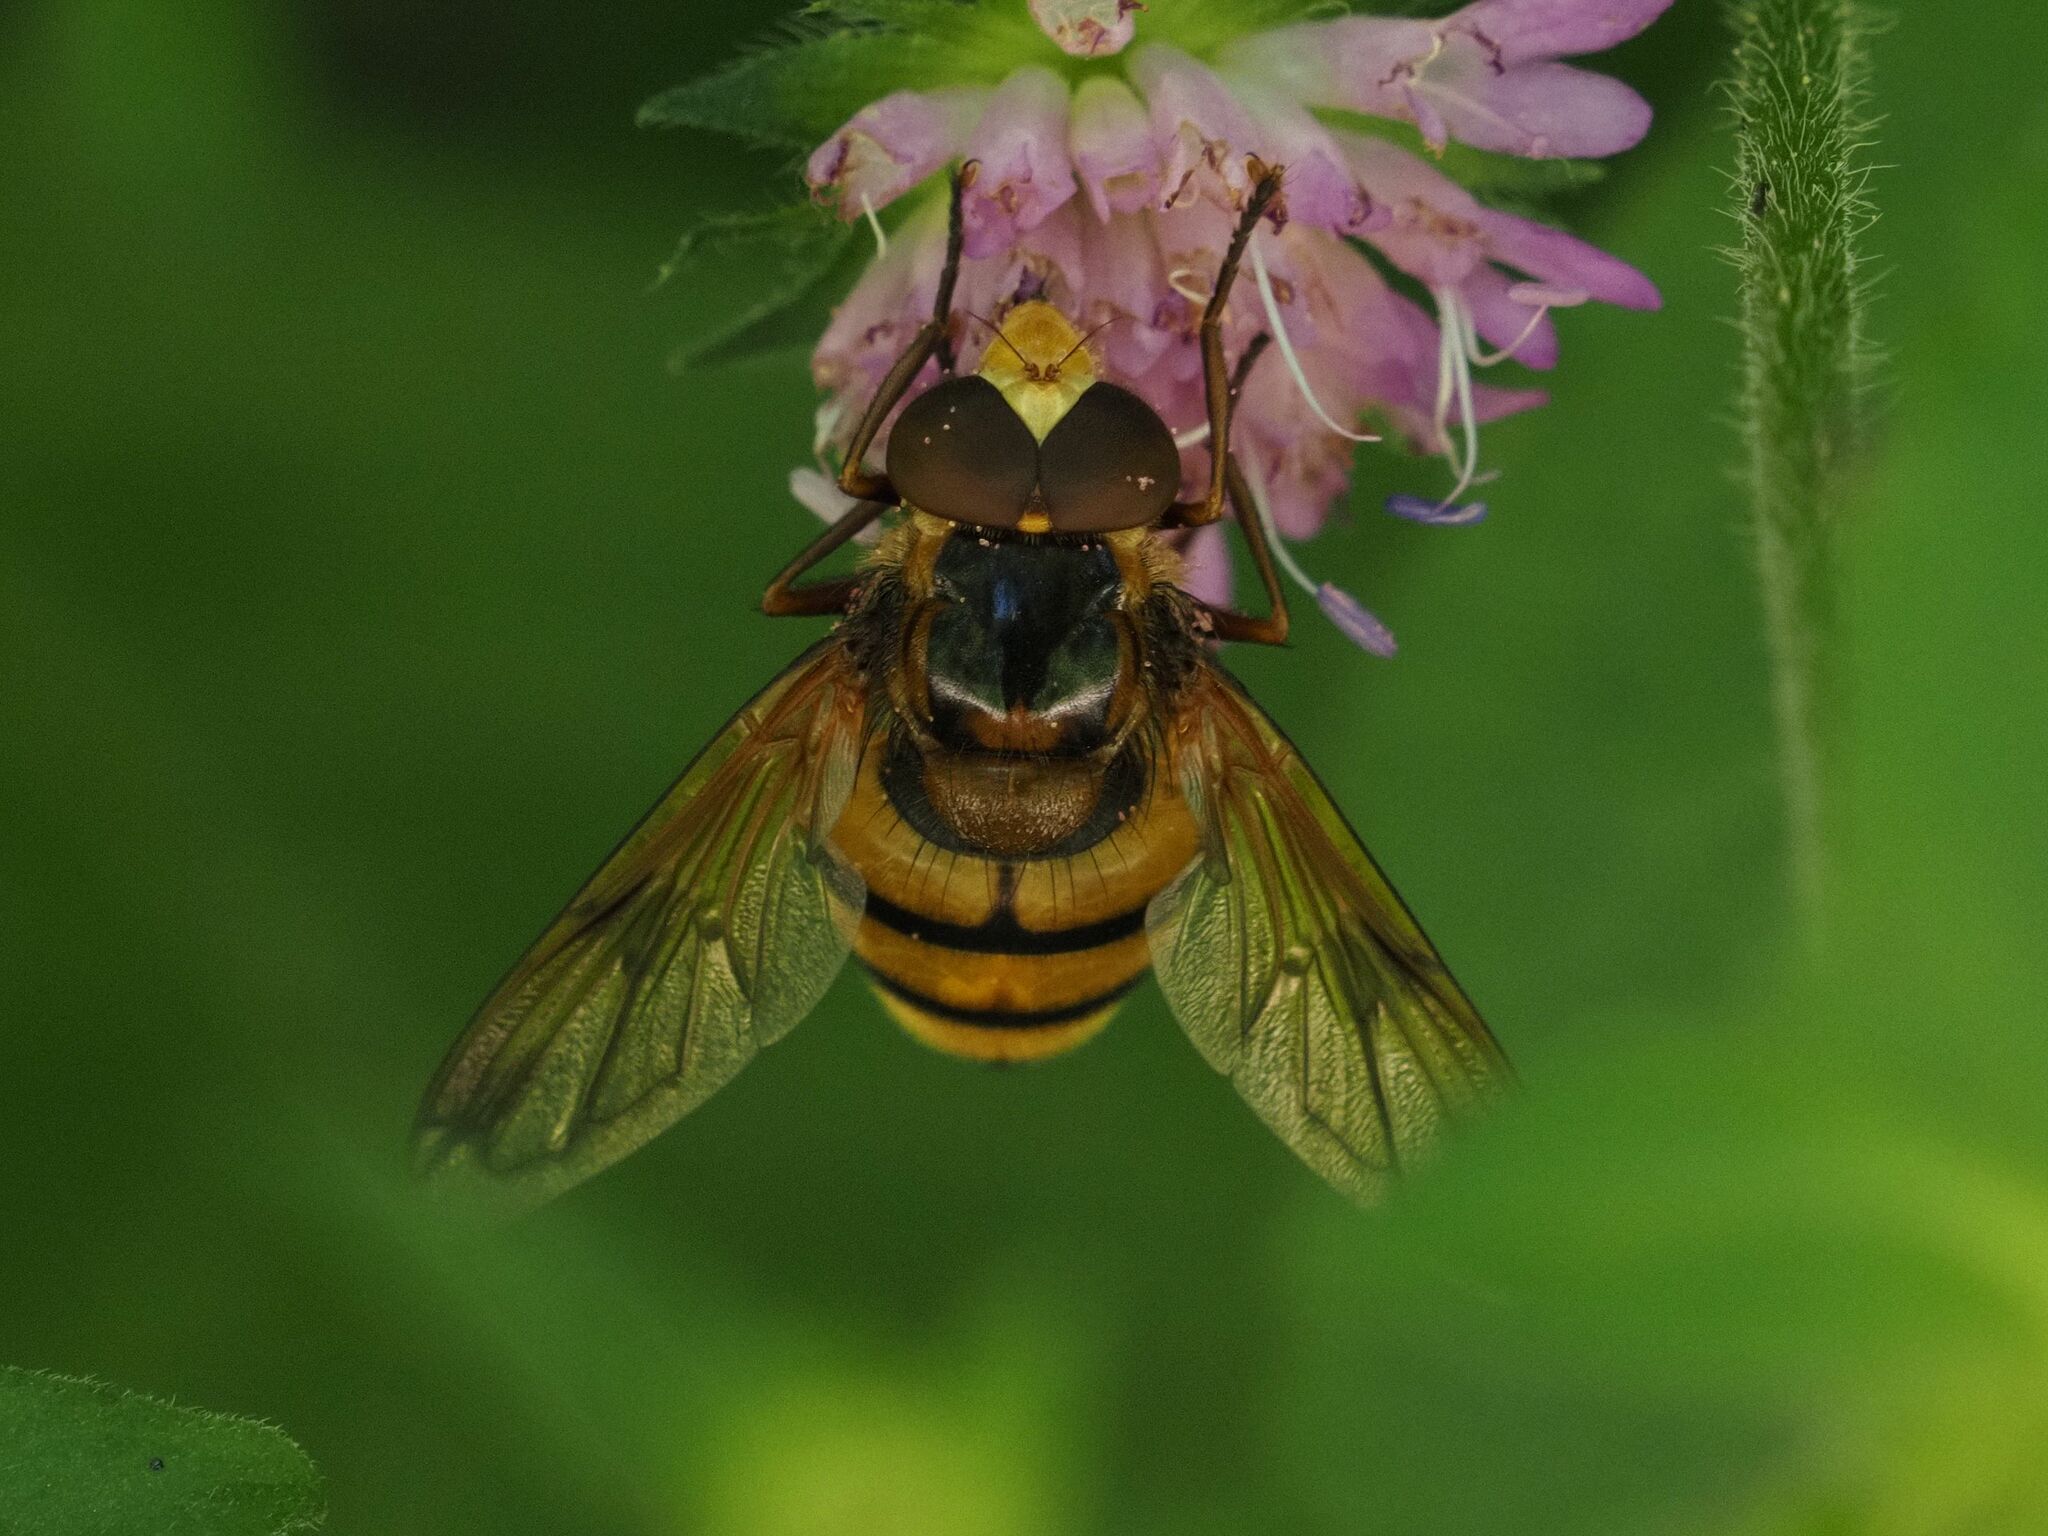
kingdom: Animalia
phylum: Arthropoda
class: Insecta
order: Diptera
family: Syrphidae
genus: Volucella
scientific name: Volucella inanis
